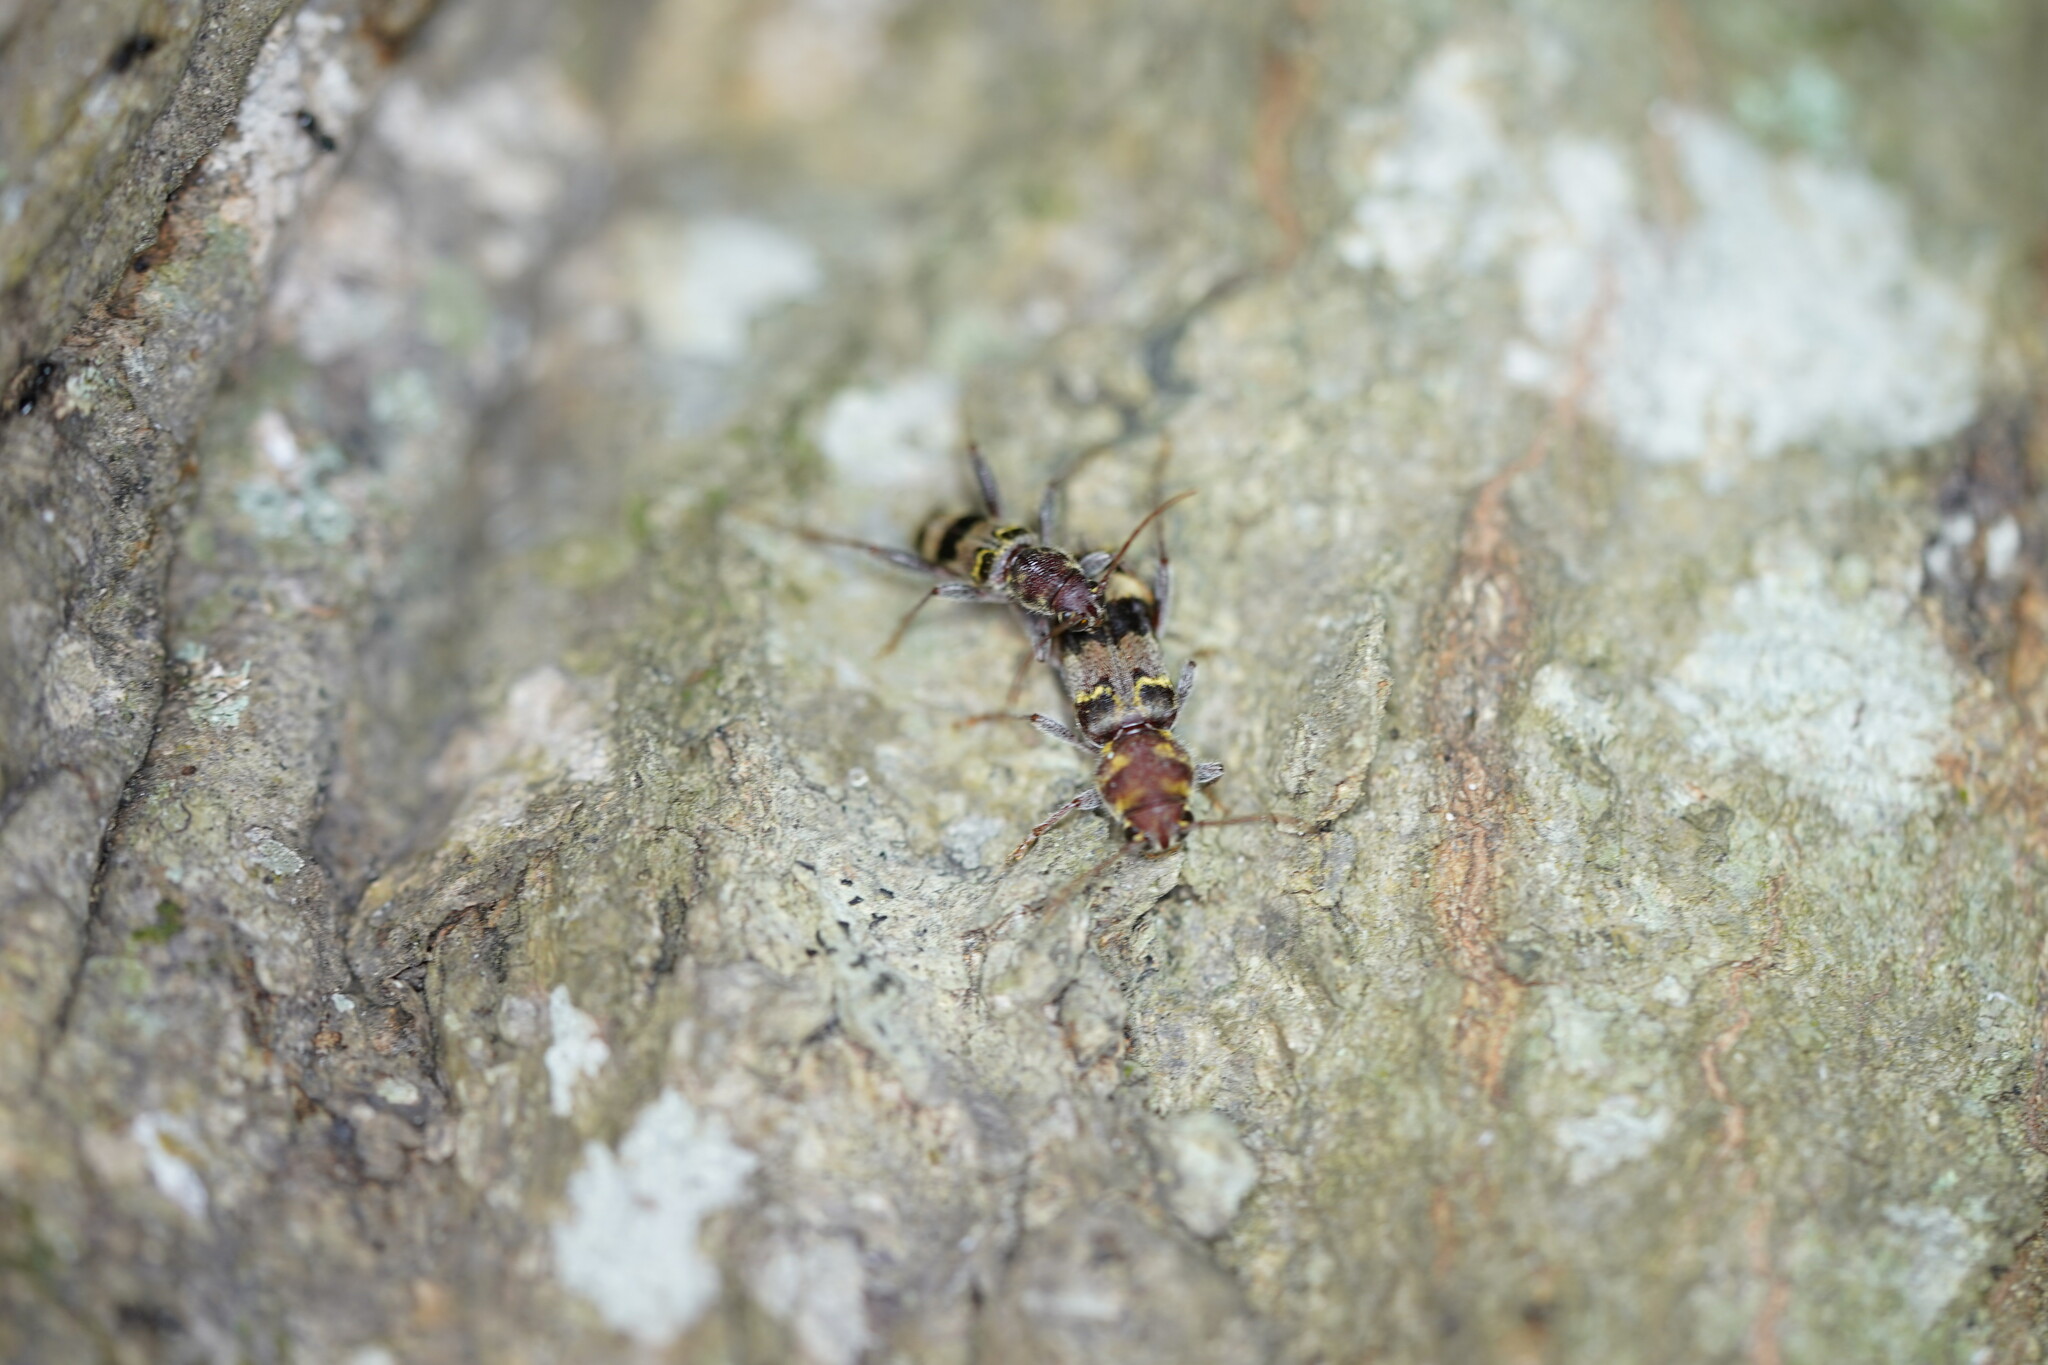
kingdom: Animalia
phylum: Arthropoda
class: Insecta
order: Coleoptera
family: Cerambycidae
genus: Xylotrechus
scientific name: Xylotrechus colonus
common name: Long-horned beetle
